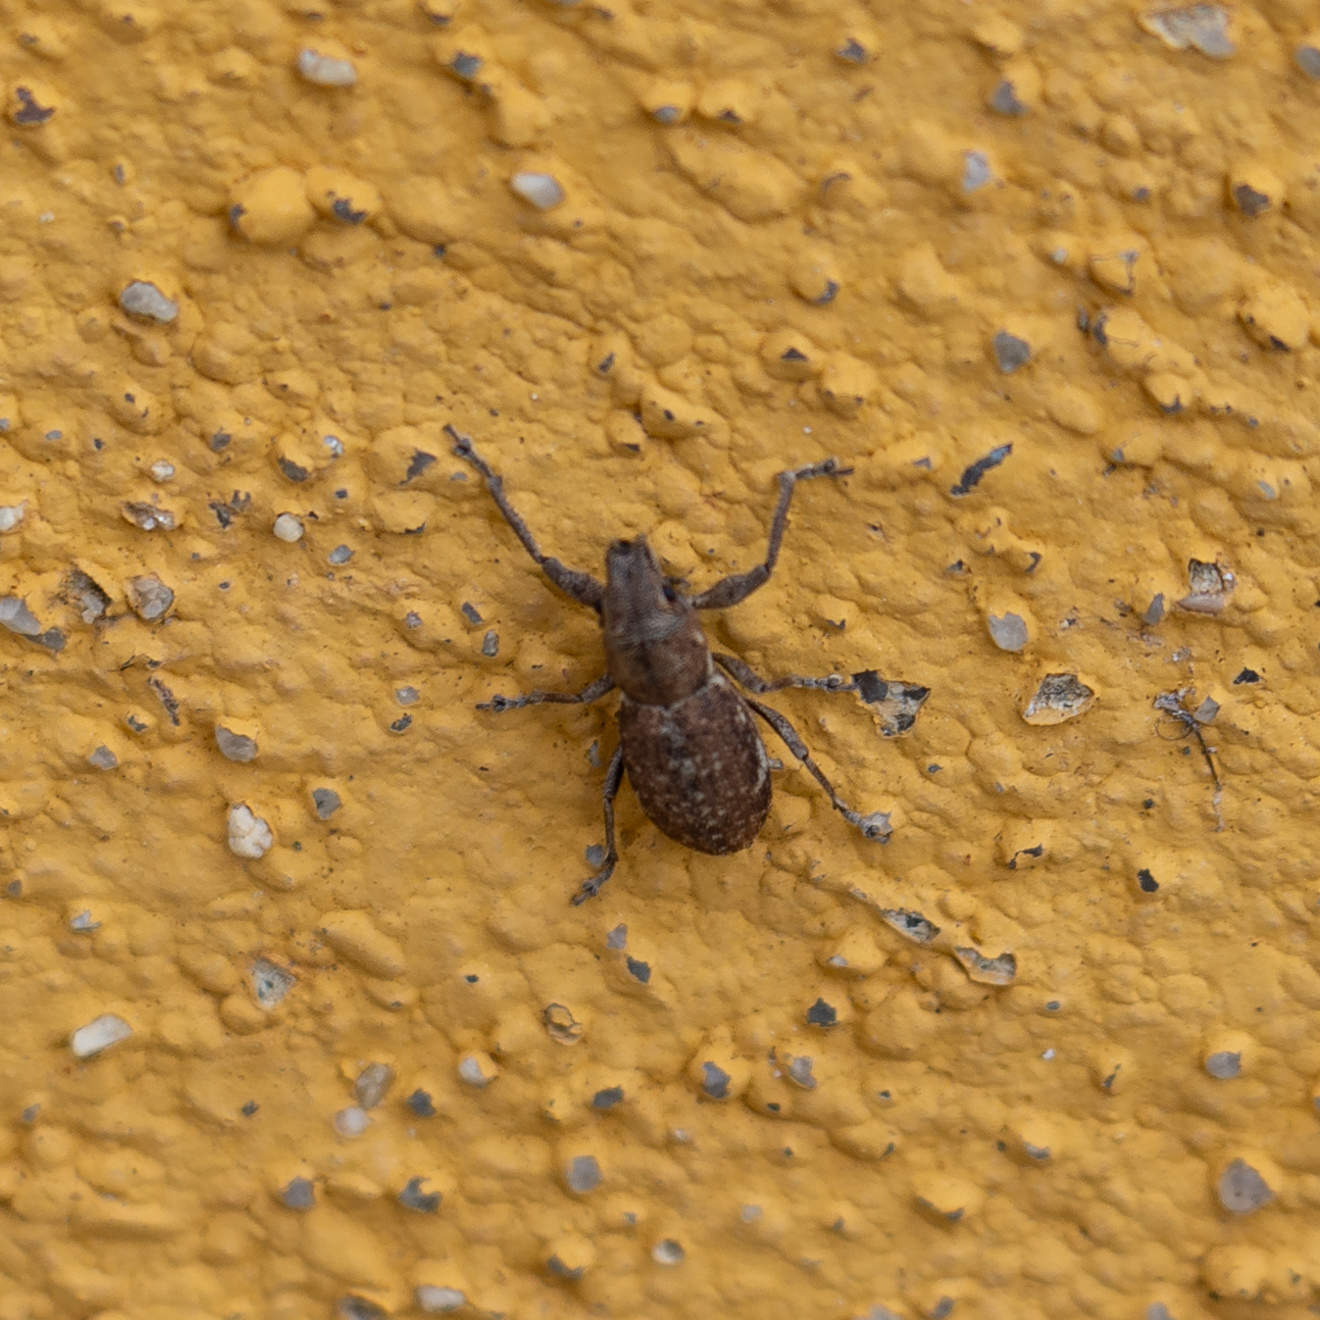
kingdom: Animalia
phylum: Arthropoda
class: Insecta
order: Coleoptera
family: Curculionidae
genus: Naupactus
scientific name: Naupactus cervinus
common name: Fuller rose beetle
